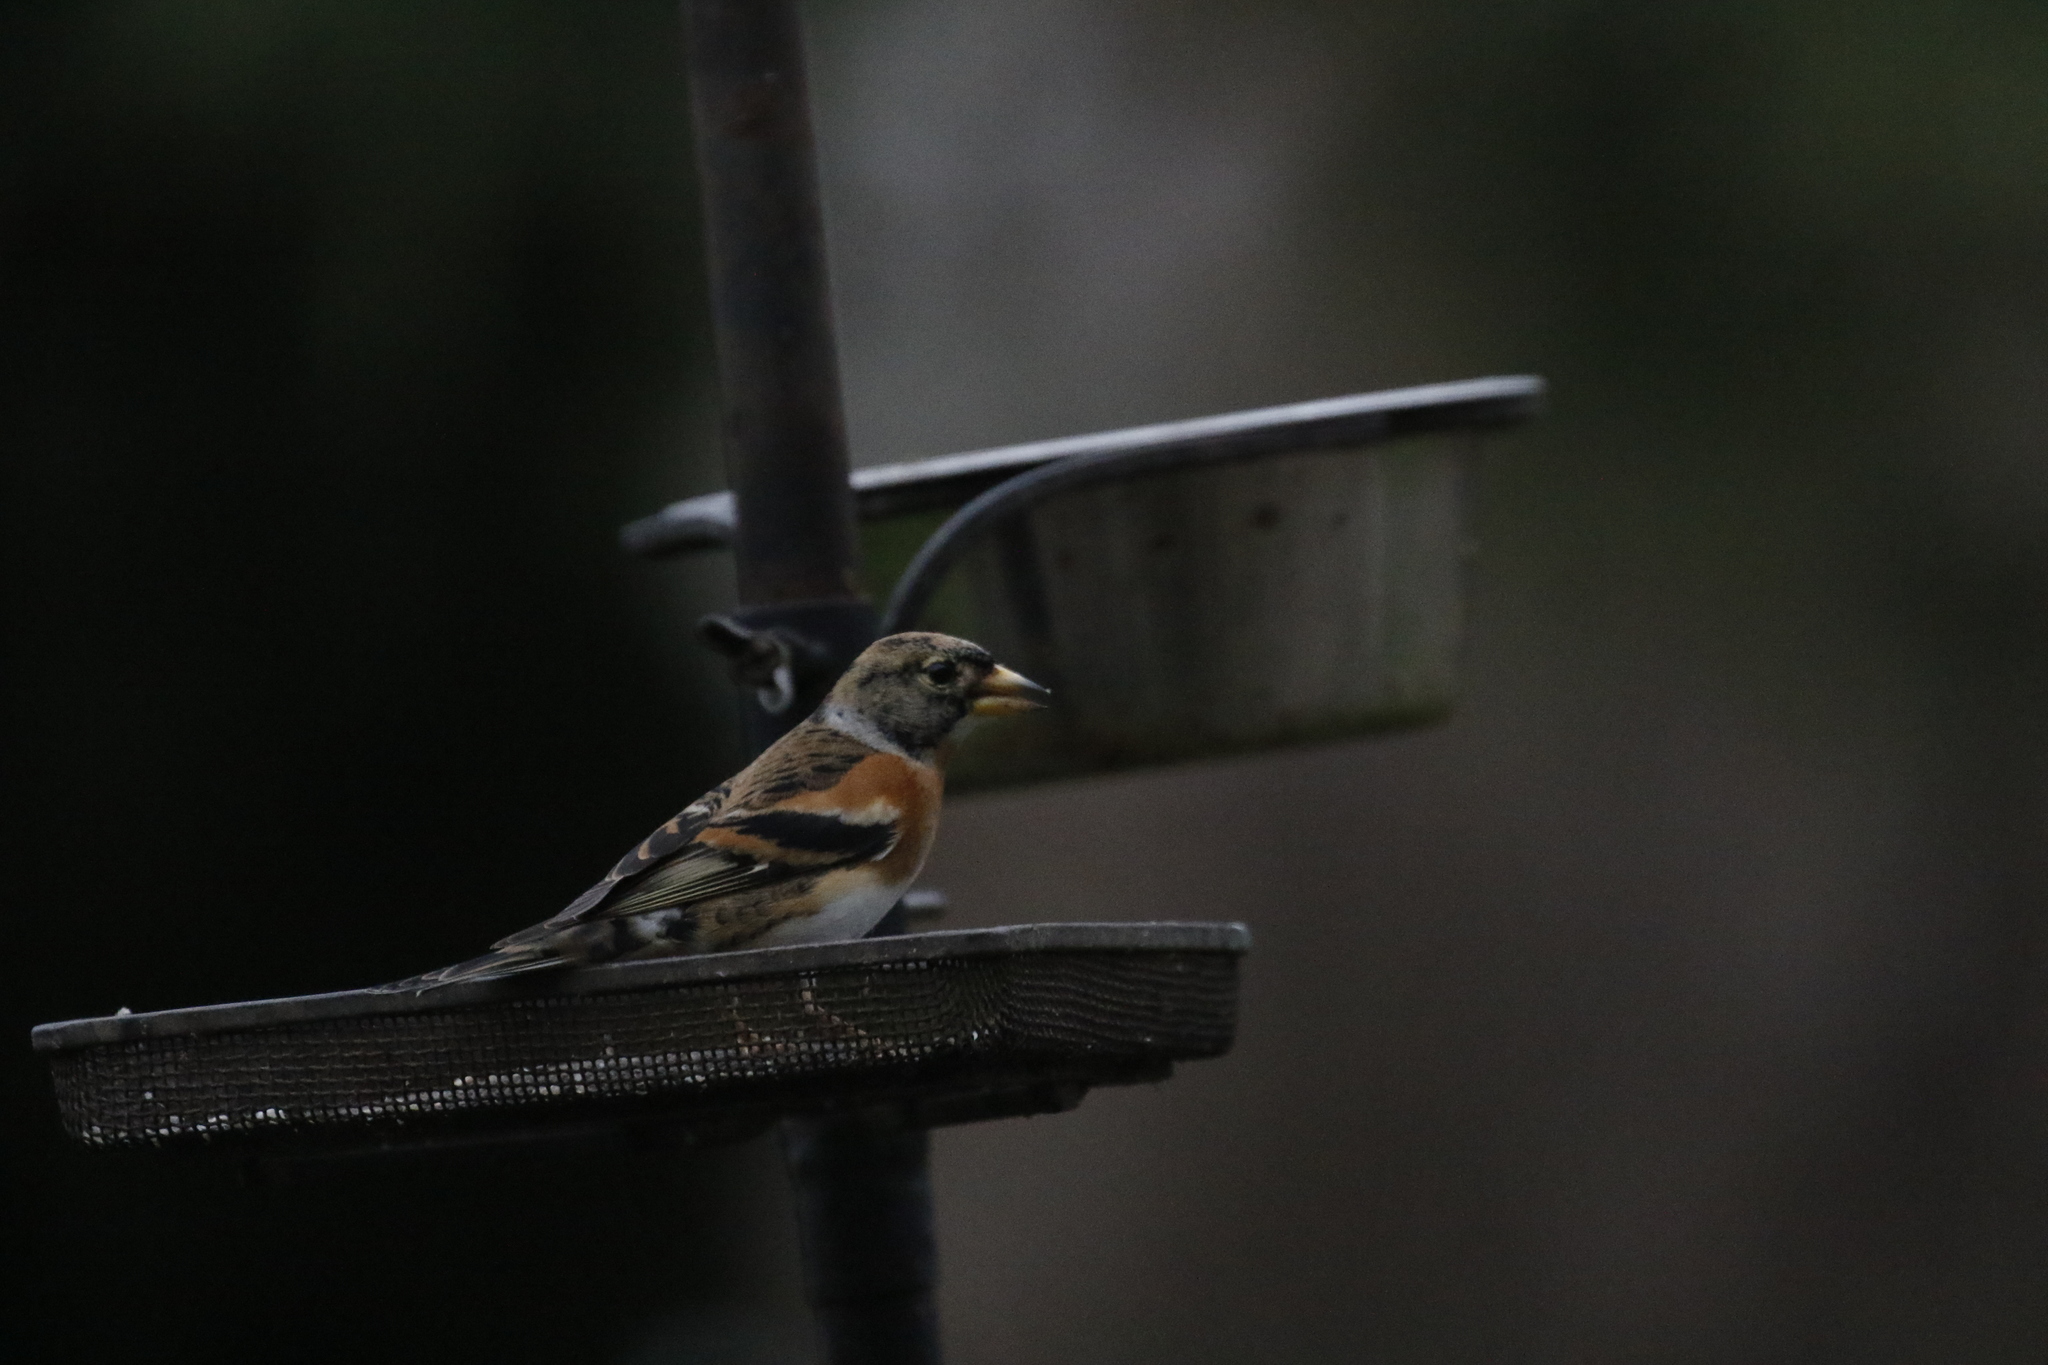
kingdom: Animalia
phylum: Chordata
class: Aves
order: Passeriformes
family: Fringillidae
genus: Fringilla
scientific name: Fringilla montifringilla
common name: Brambling
